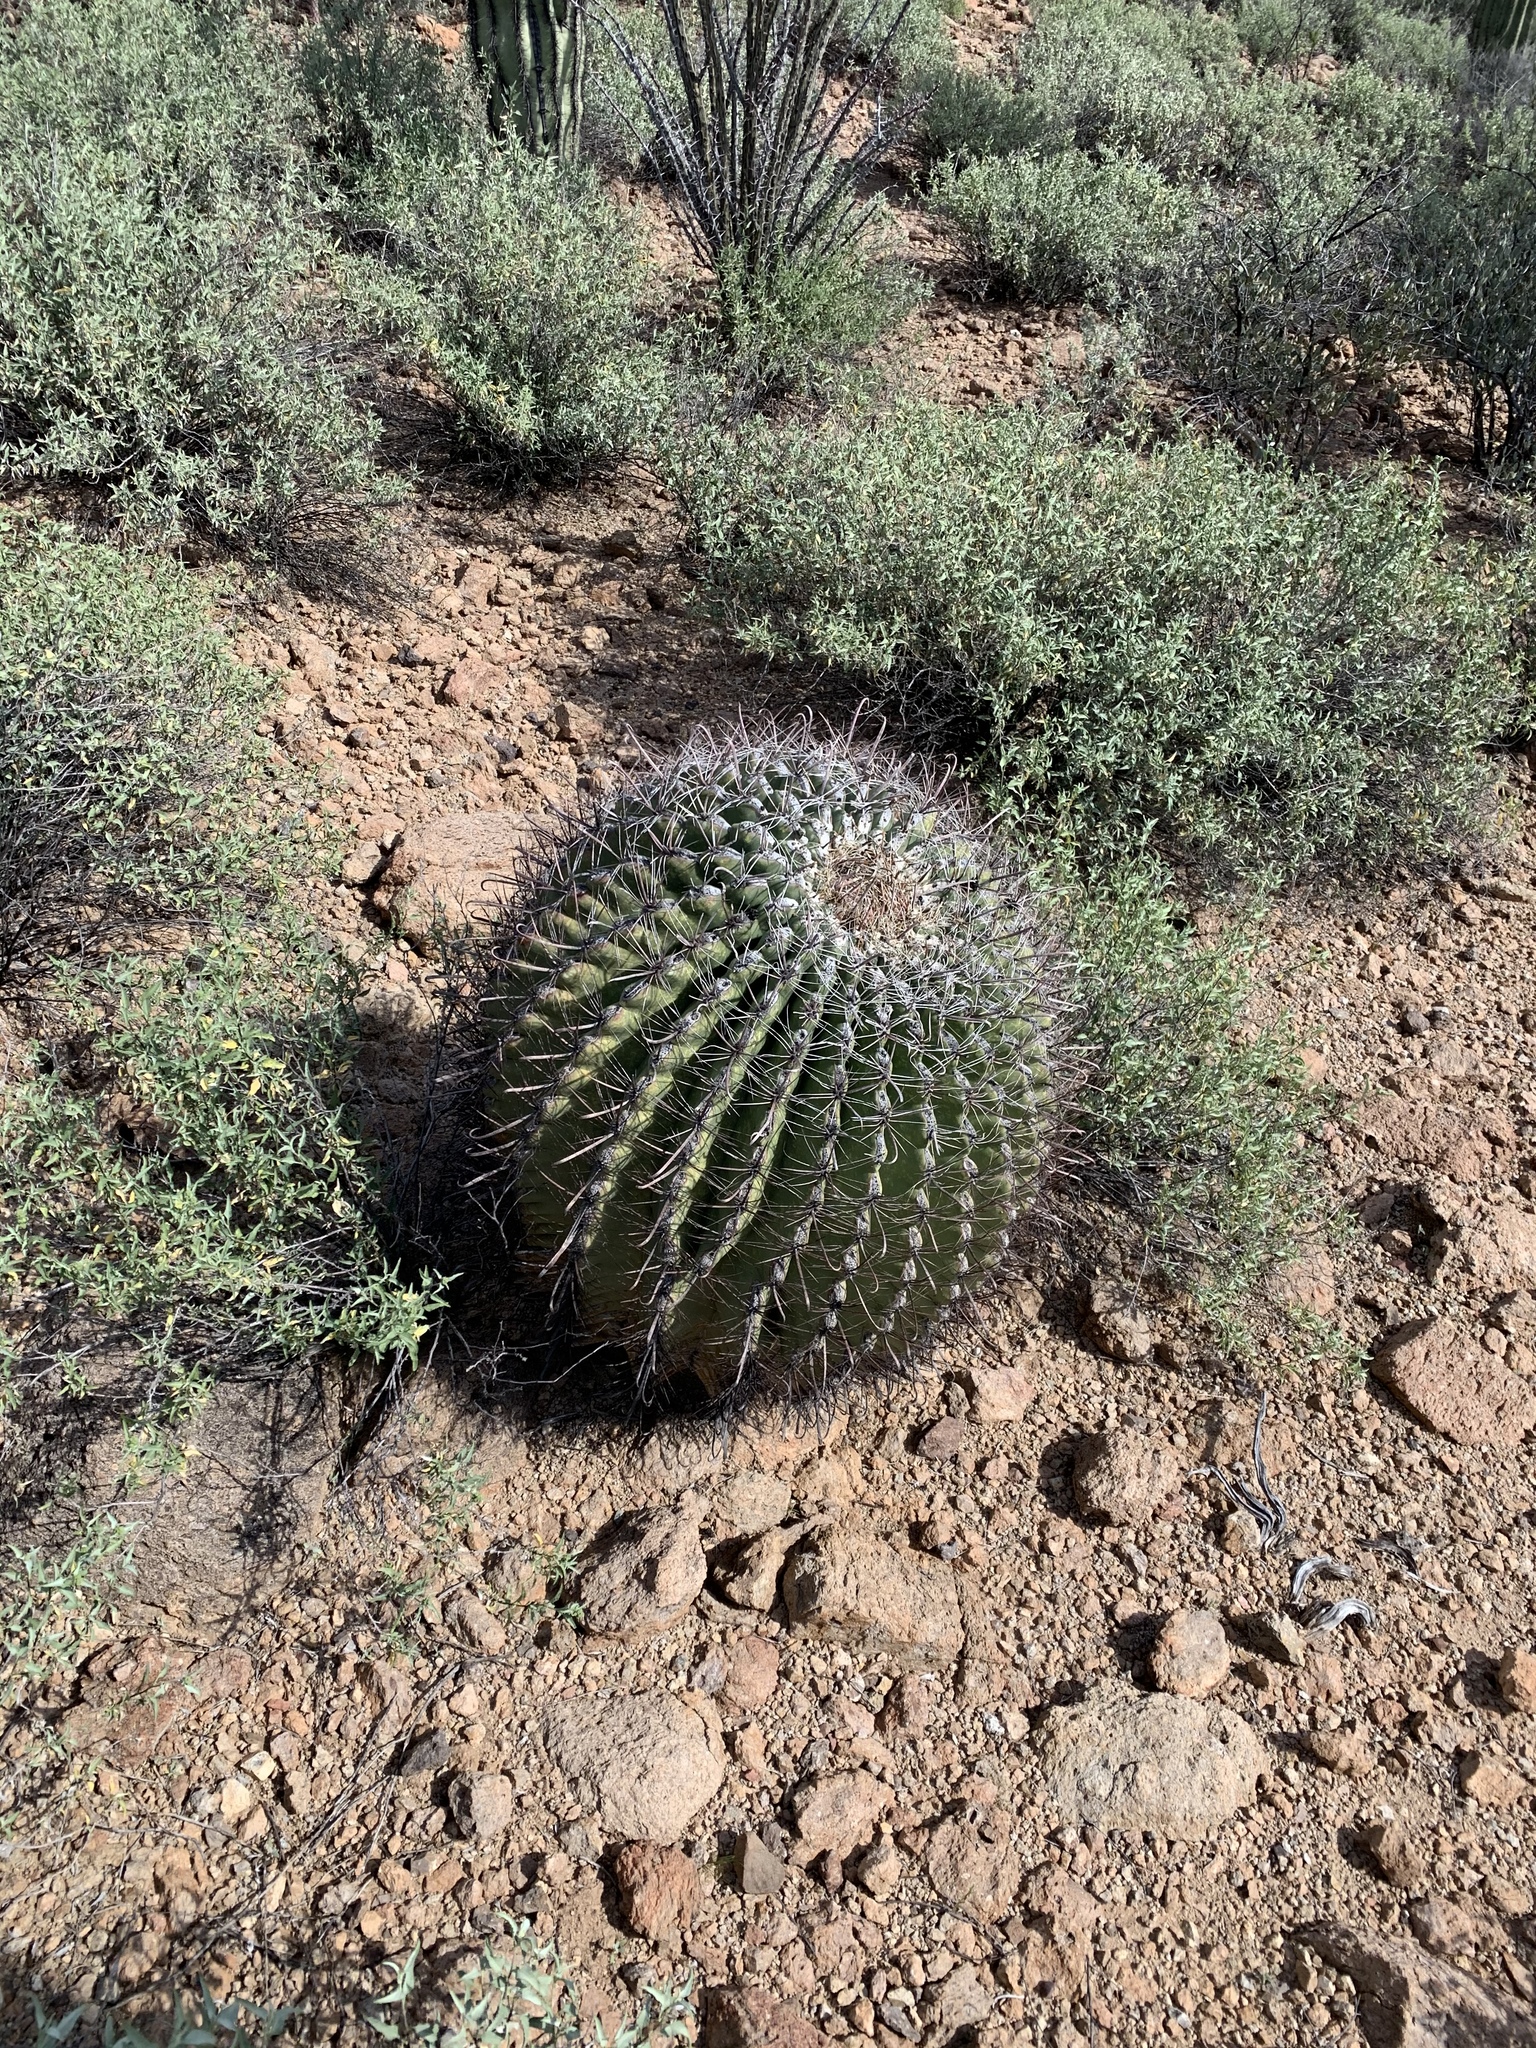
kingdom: Plantae
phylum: Tracheophyta
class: Magnoliopsida
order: Caryophyllales
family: Cactaceae
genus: Ferocactus
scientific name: Ferocactus wislizeni
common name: Candy barrel cactus
